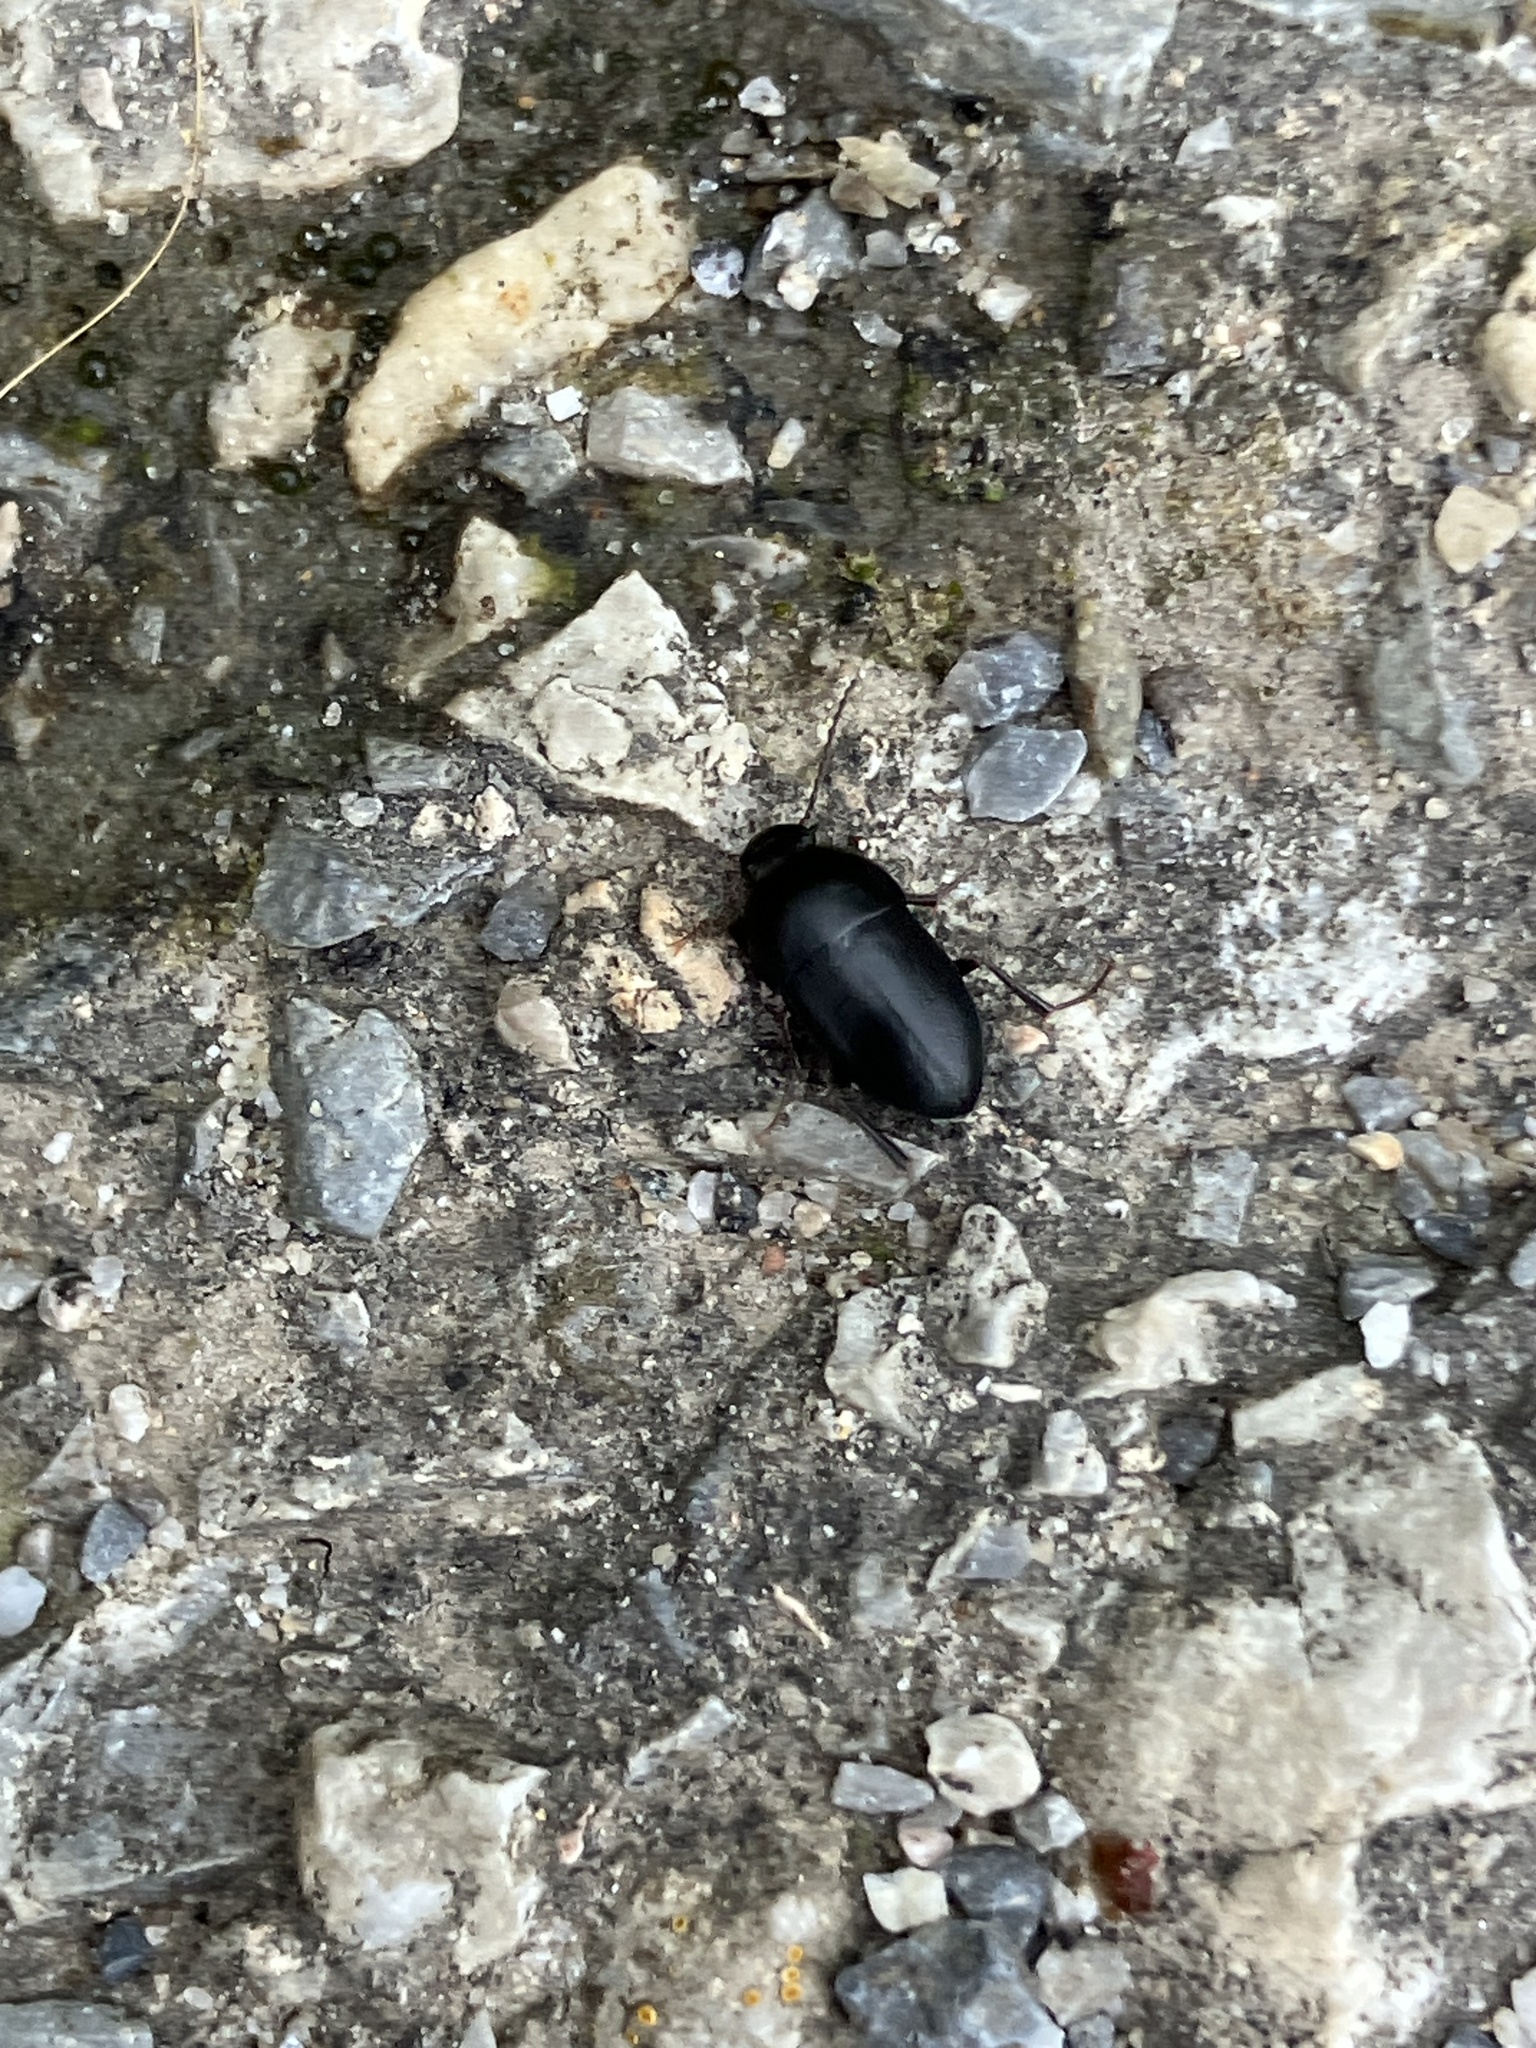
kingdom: Animalia
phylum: Arthropoda
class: Insecta
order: Coleoptera
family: Tenebrionidae
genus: Crypticus
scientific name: Crypticus quisquilius
